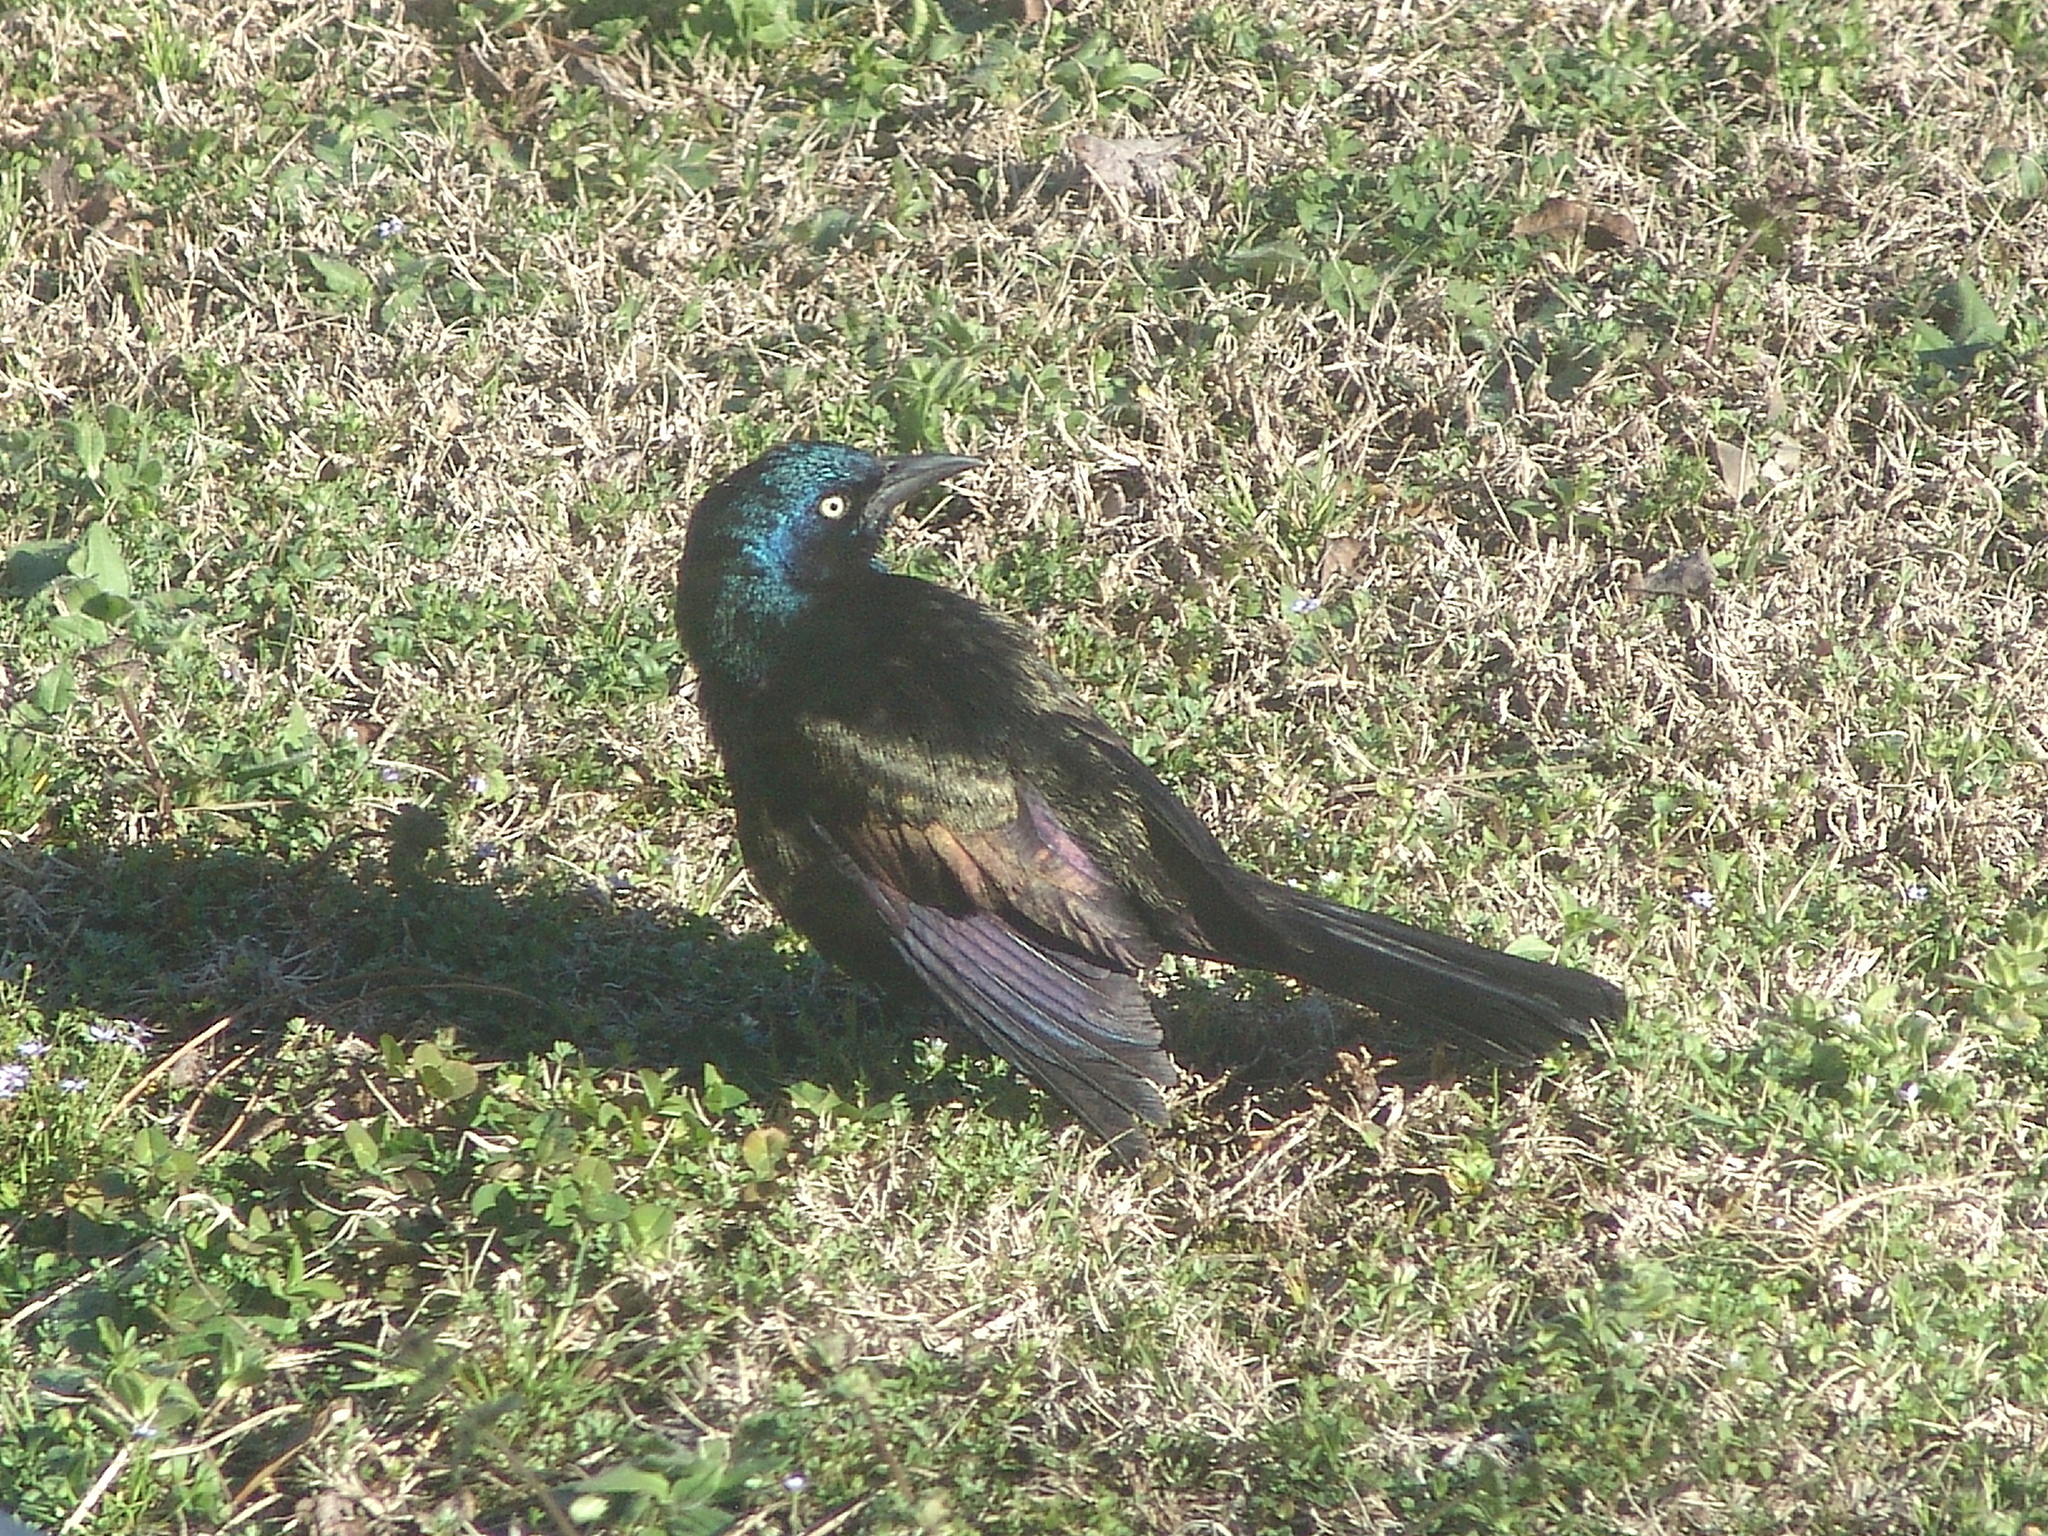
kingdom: Animalia
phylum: Chordata
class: Aves
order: Passeriformes
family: Icteridae
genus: Quiscalus
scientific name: Quiscalus quiscula
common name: Common grackle
